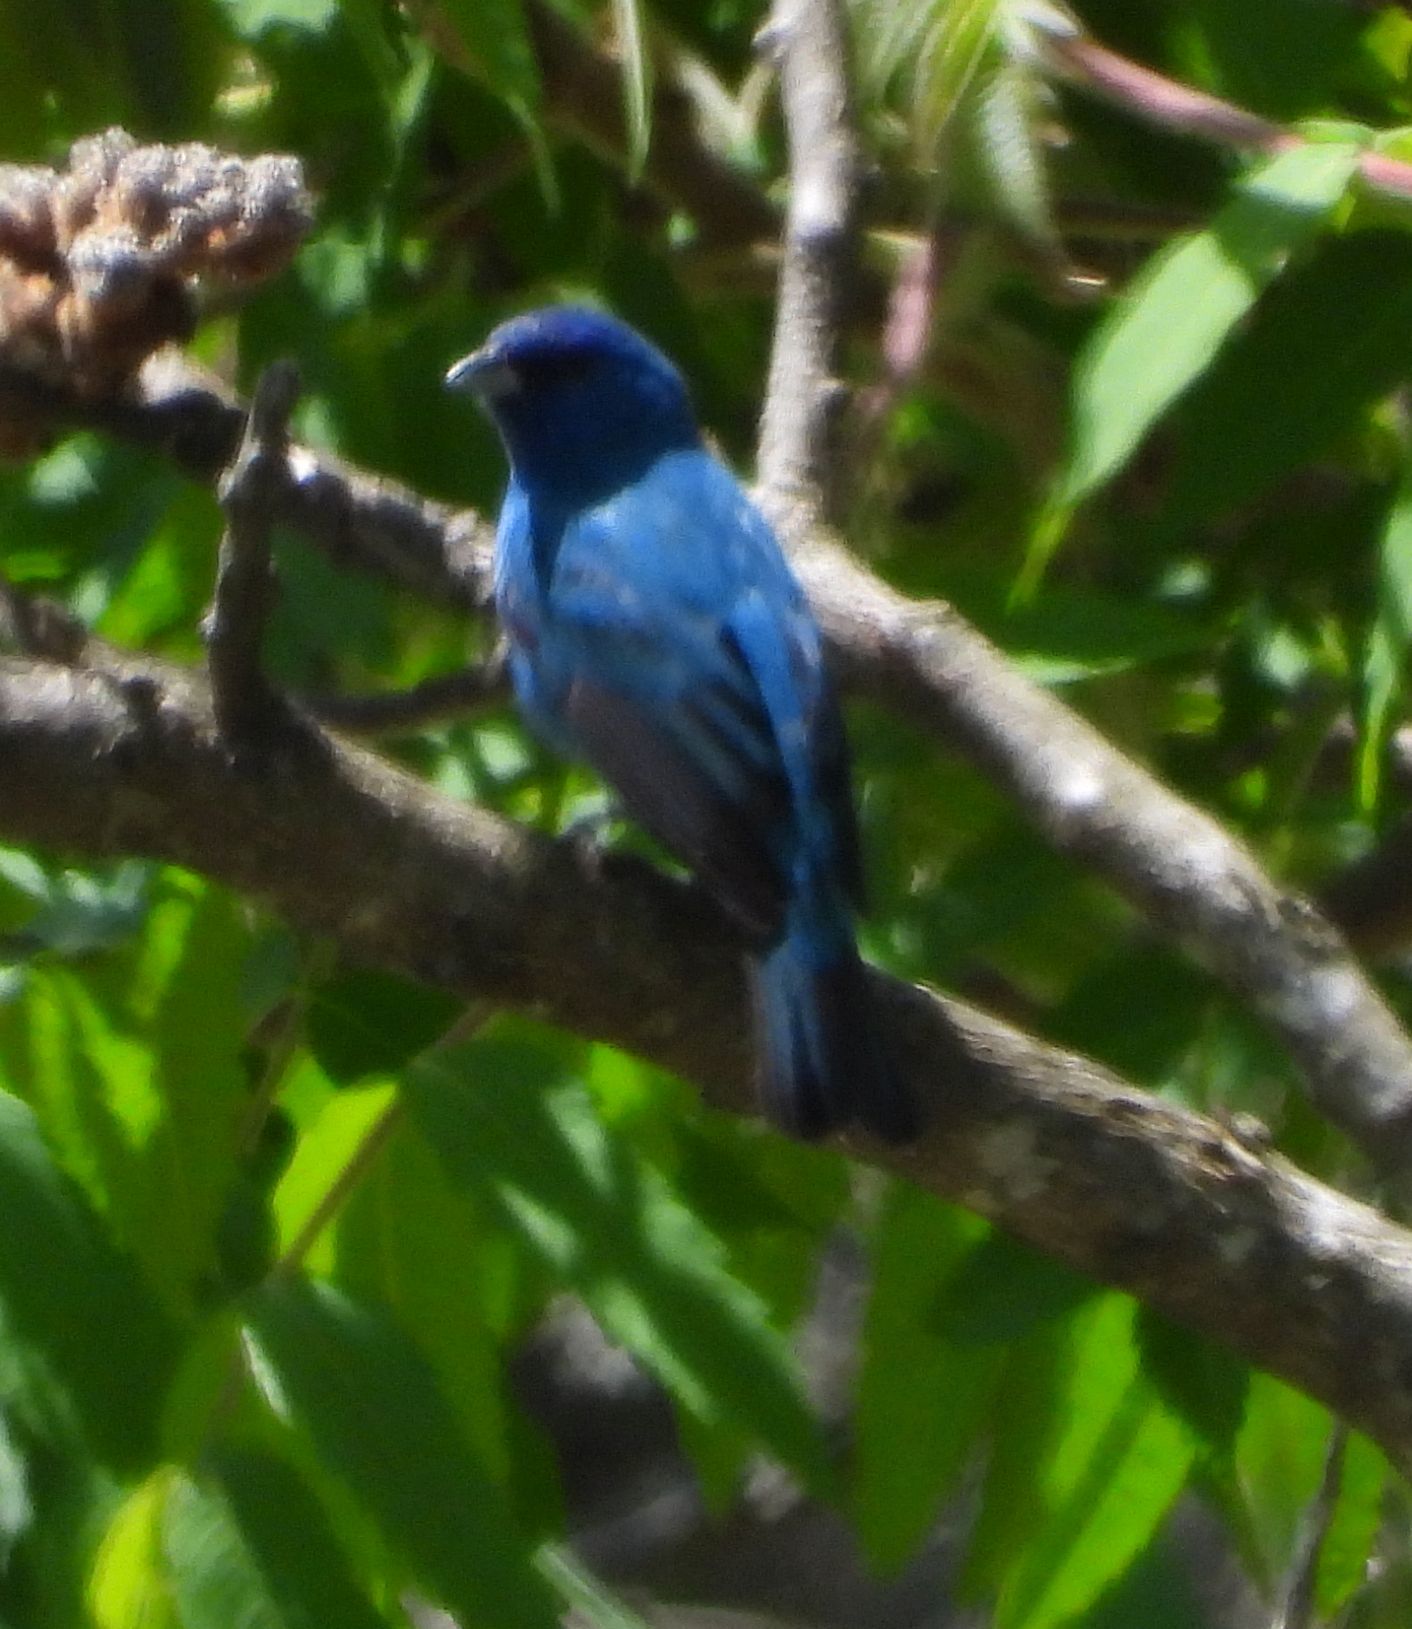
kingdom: Animalia
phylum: Chordata
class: Aves
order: Passeriformes
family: Cardinalidae
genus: Passerina
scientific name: Passerina cyanea
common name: Indigo bunting
